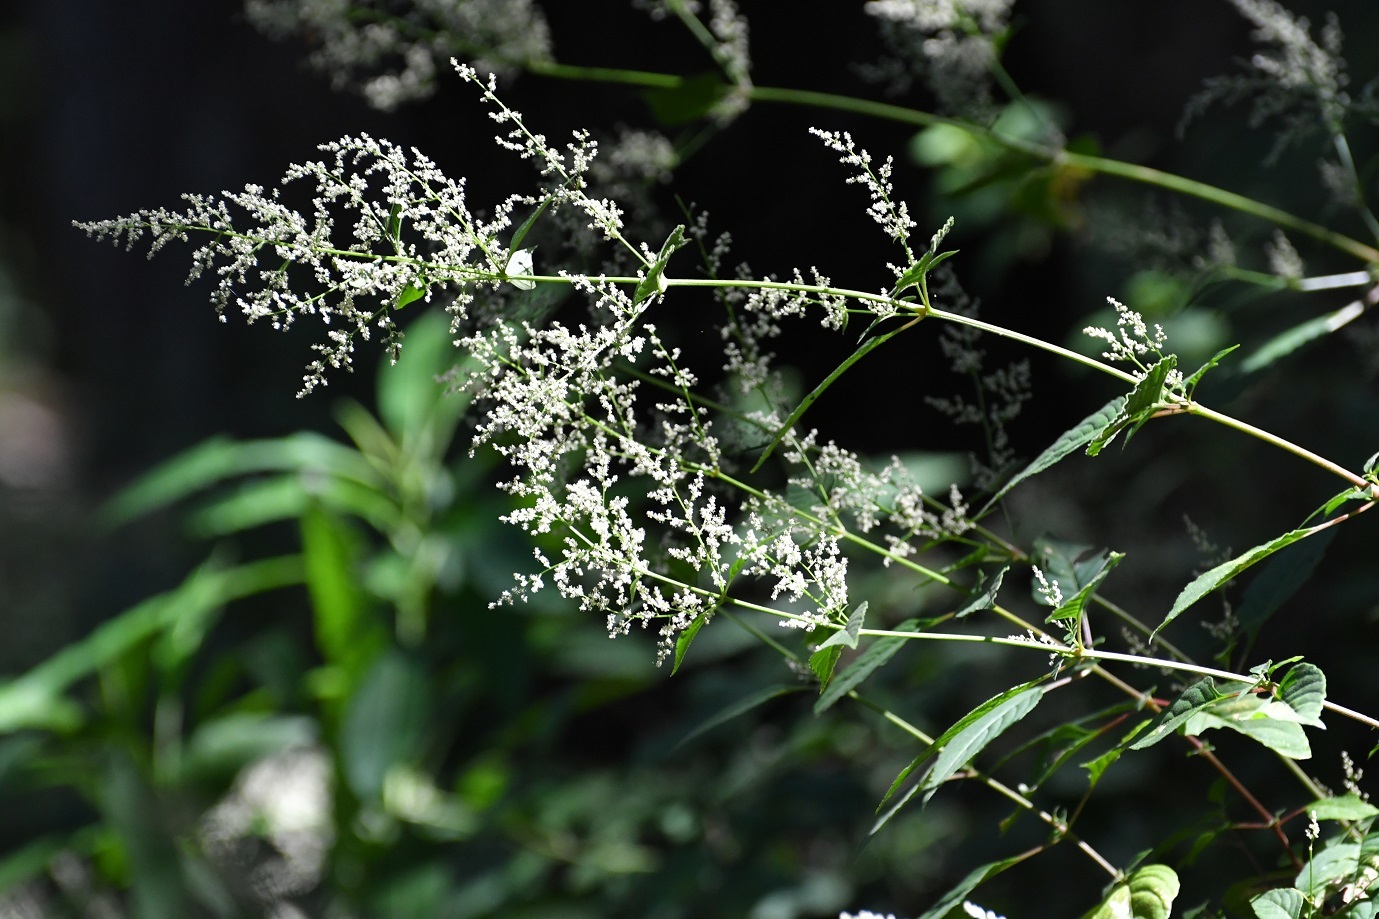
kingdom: Plantae
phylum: Tracheophyta
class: Magnoliopsida
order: Caryophyllales
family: Amaranthaceae
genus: Iresine
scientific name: Iresine diffusa
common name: Juba's-bush
